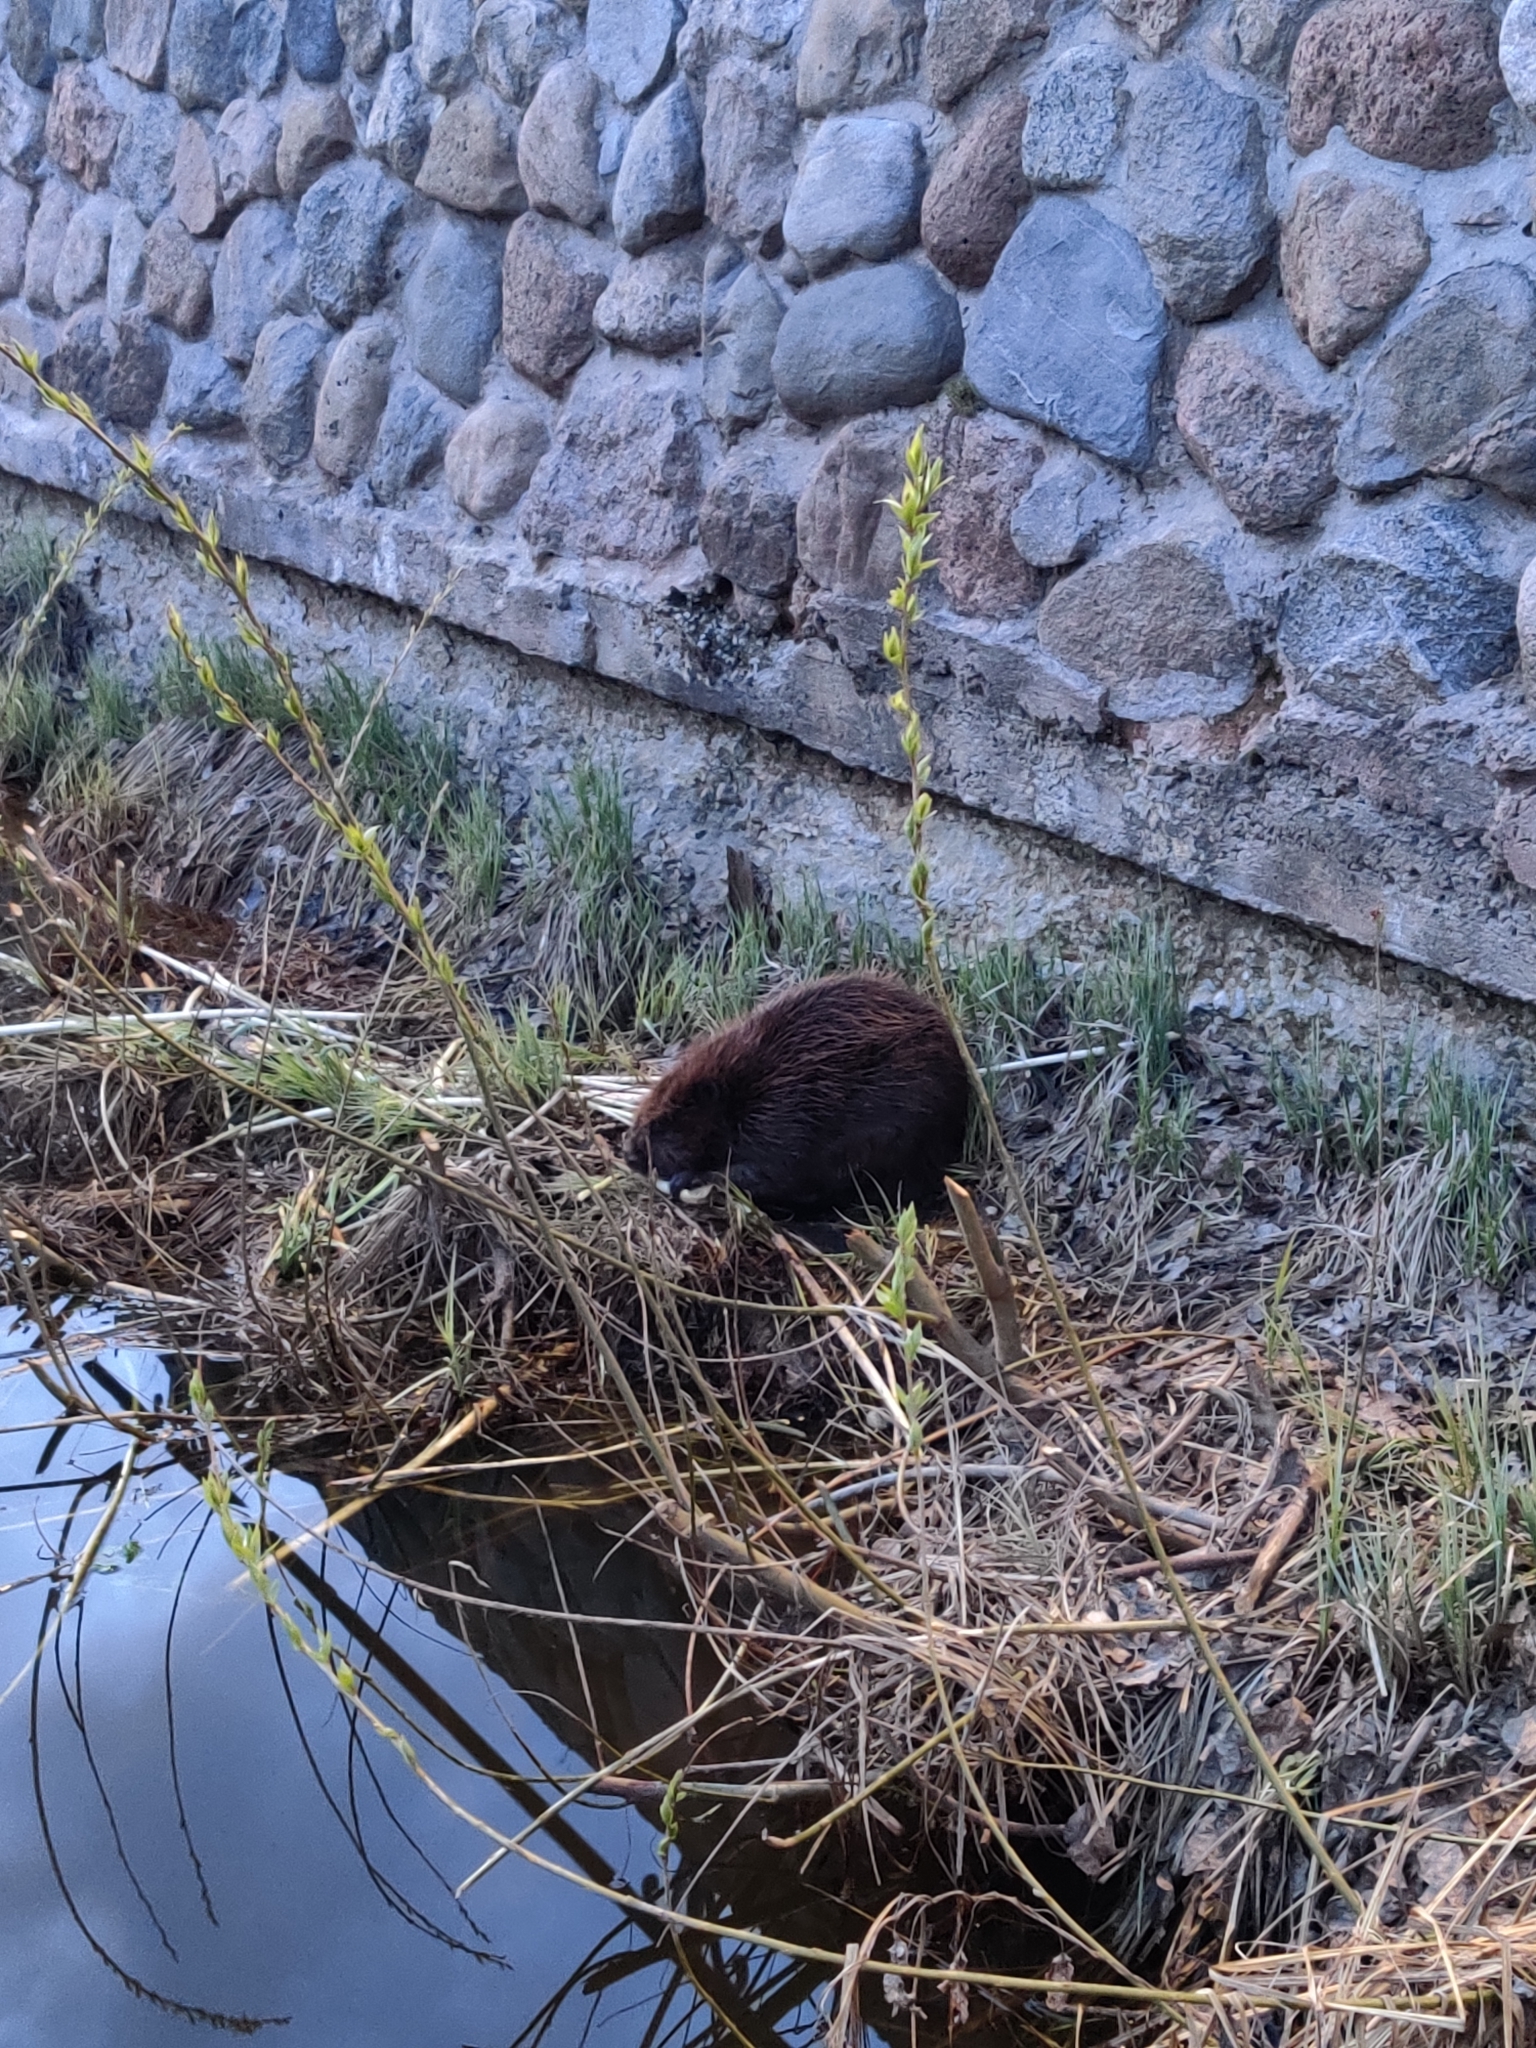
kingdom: Animalia
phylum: Chordata
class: Mammalia
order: Rodentia
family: Castoridae
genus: Castor
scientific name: Castor fiber
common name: Eurasian beaver
